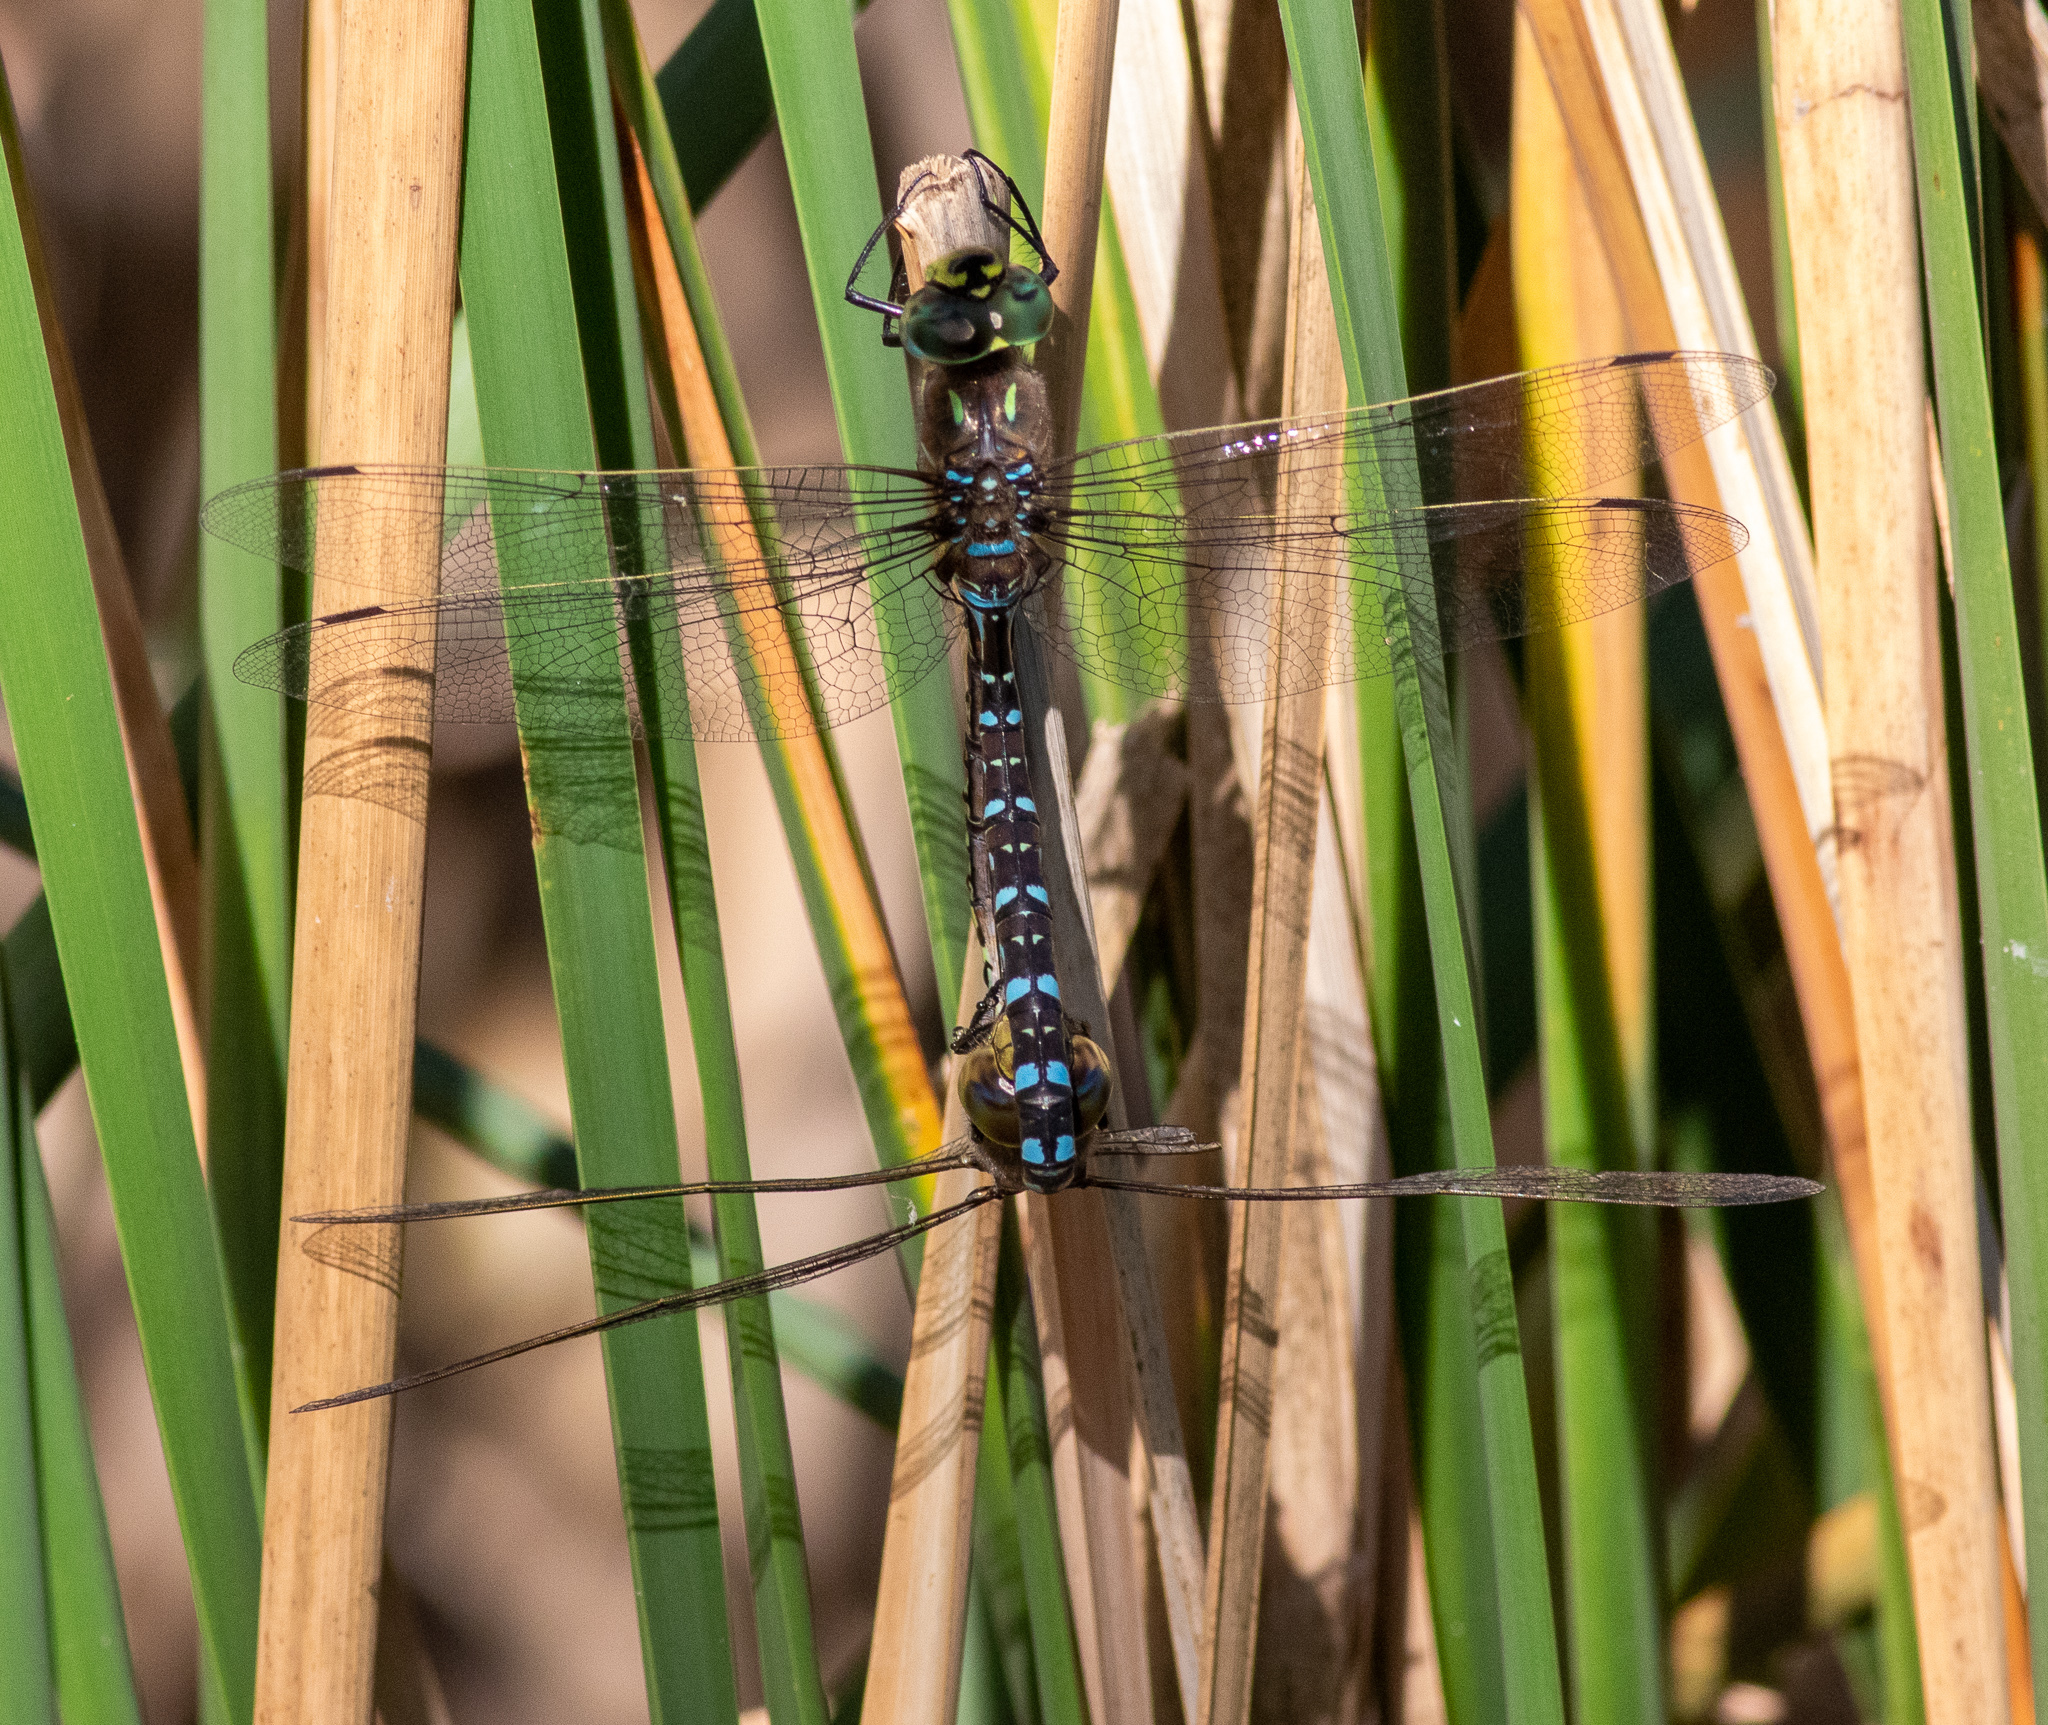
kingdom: Animalia
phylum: Arthropoda
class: Insecta
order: Odonata
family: Aeshnidae
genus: Aeshna
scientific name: Aeshna interrupta
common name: Variable darner
